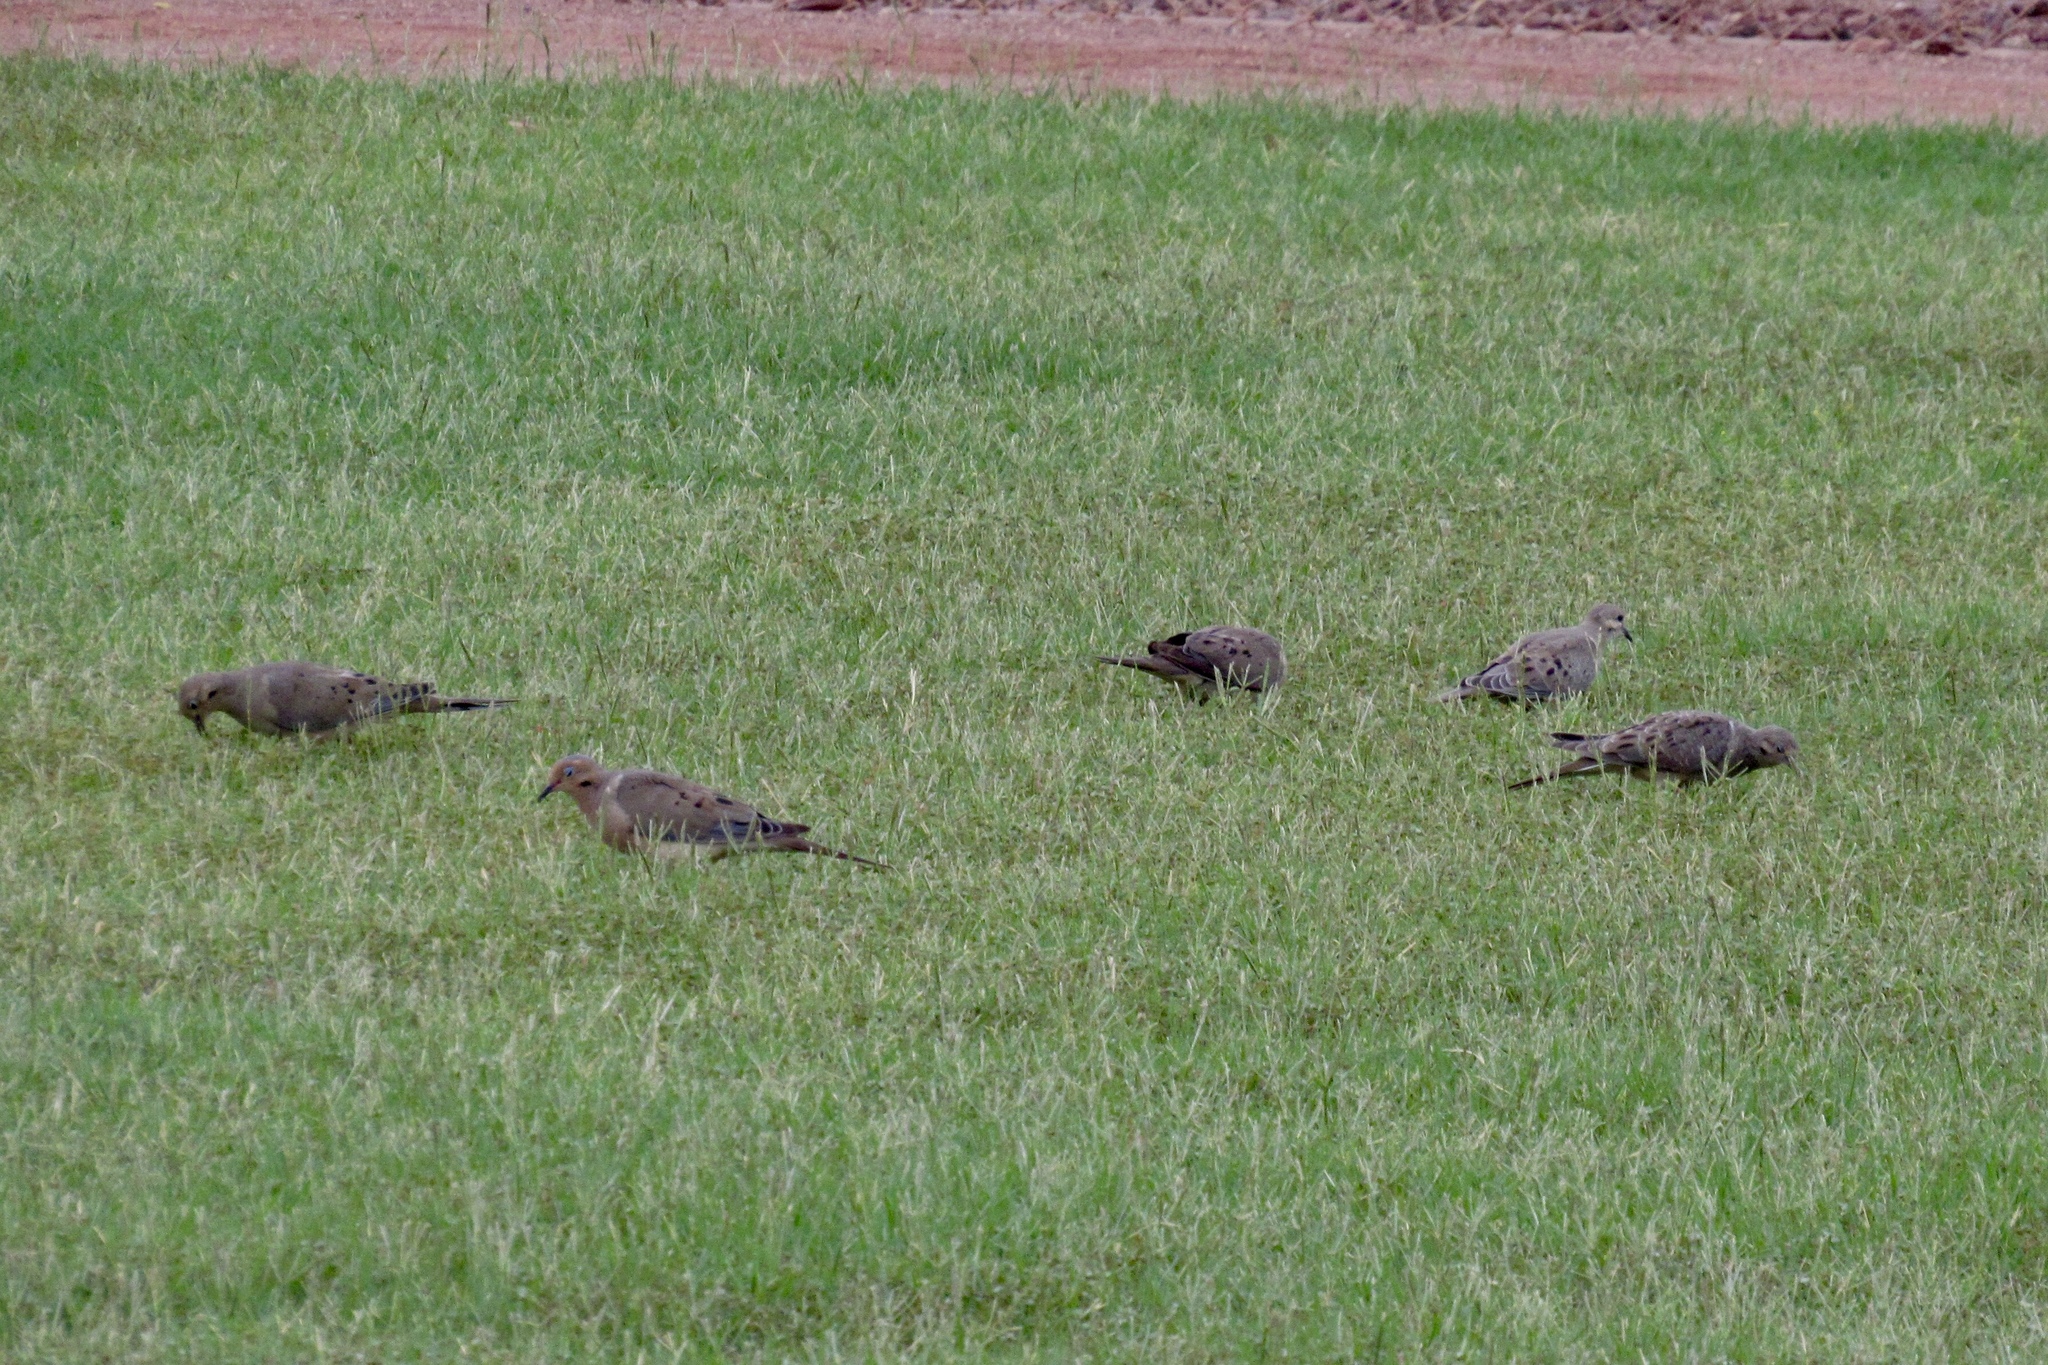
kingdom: Animalia
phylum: Chordata
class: Aves
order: Columbiformes
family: Columbidae
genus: Zenaida
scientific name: Zenaida macroura
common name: Mourning dove
